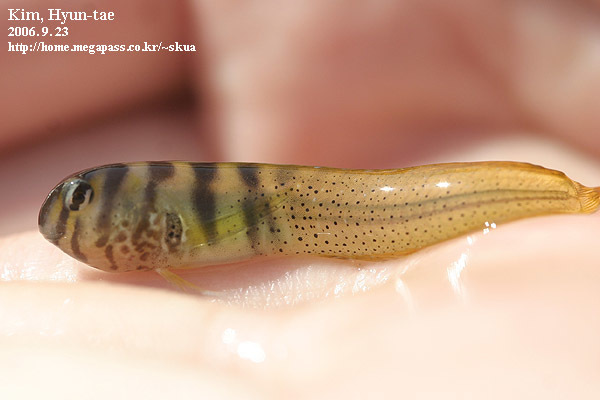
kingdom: Animalia
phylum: Chordata
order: Perciformes
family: Blenniidae
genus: Omobranchus
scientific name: Omobranchus elegans
